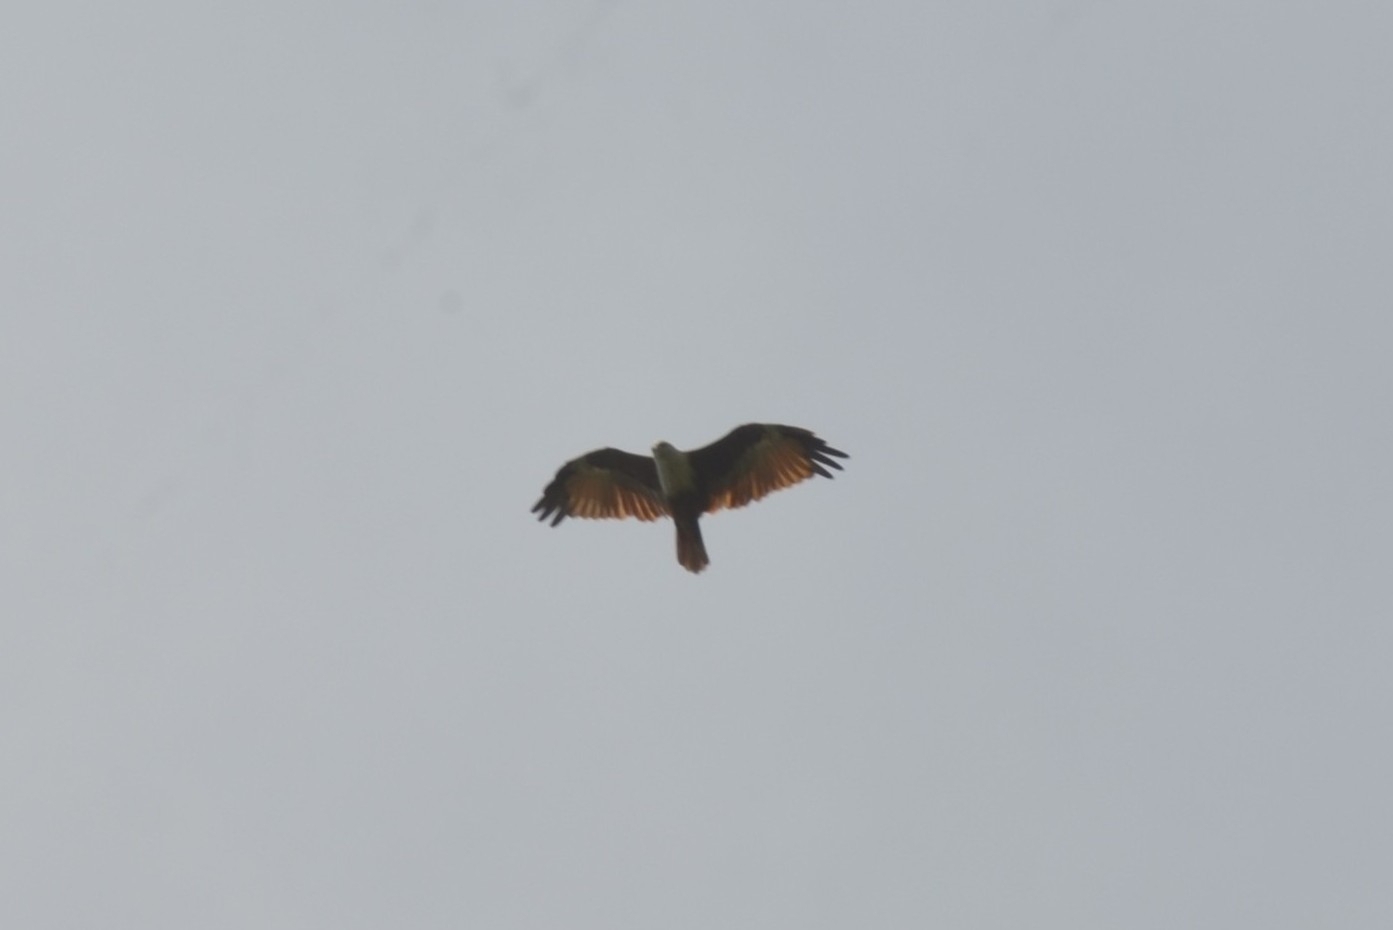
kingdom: Animalia
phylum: Chordata
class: Aves
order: Accipitriformes
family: Accipitridae
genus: Haliastur
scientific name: Haliastur indus
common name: Brahminy kite
